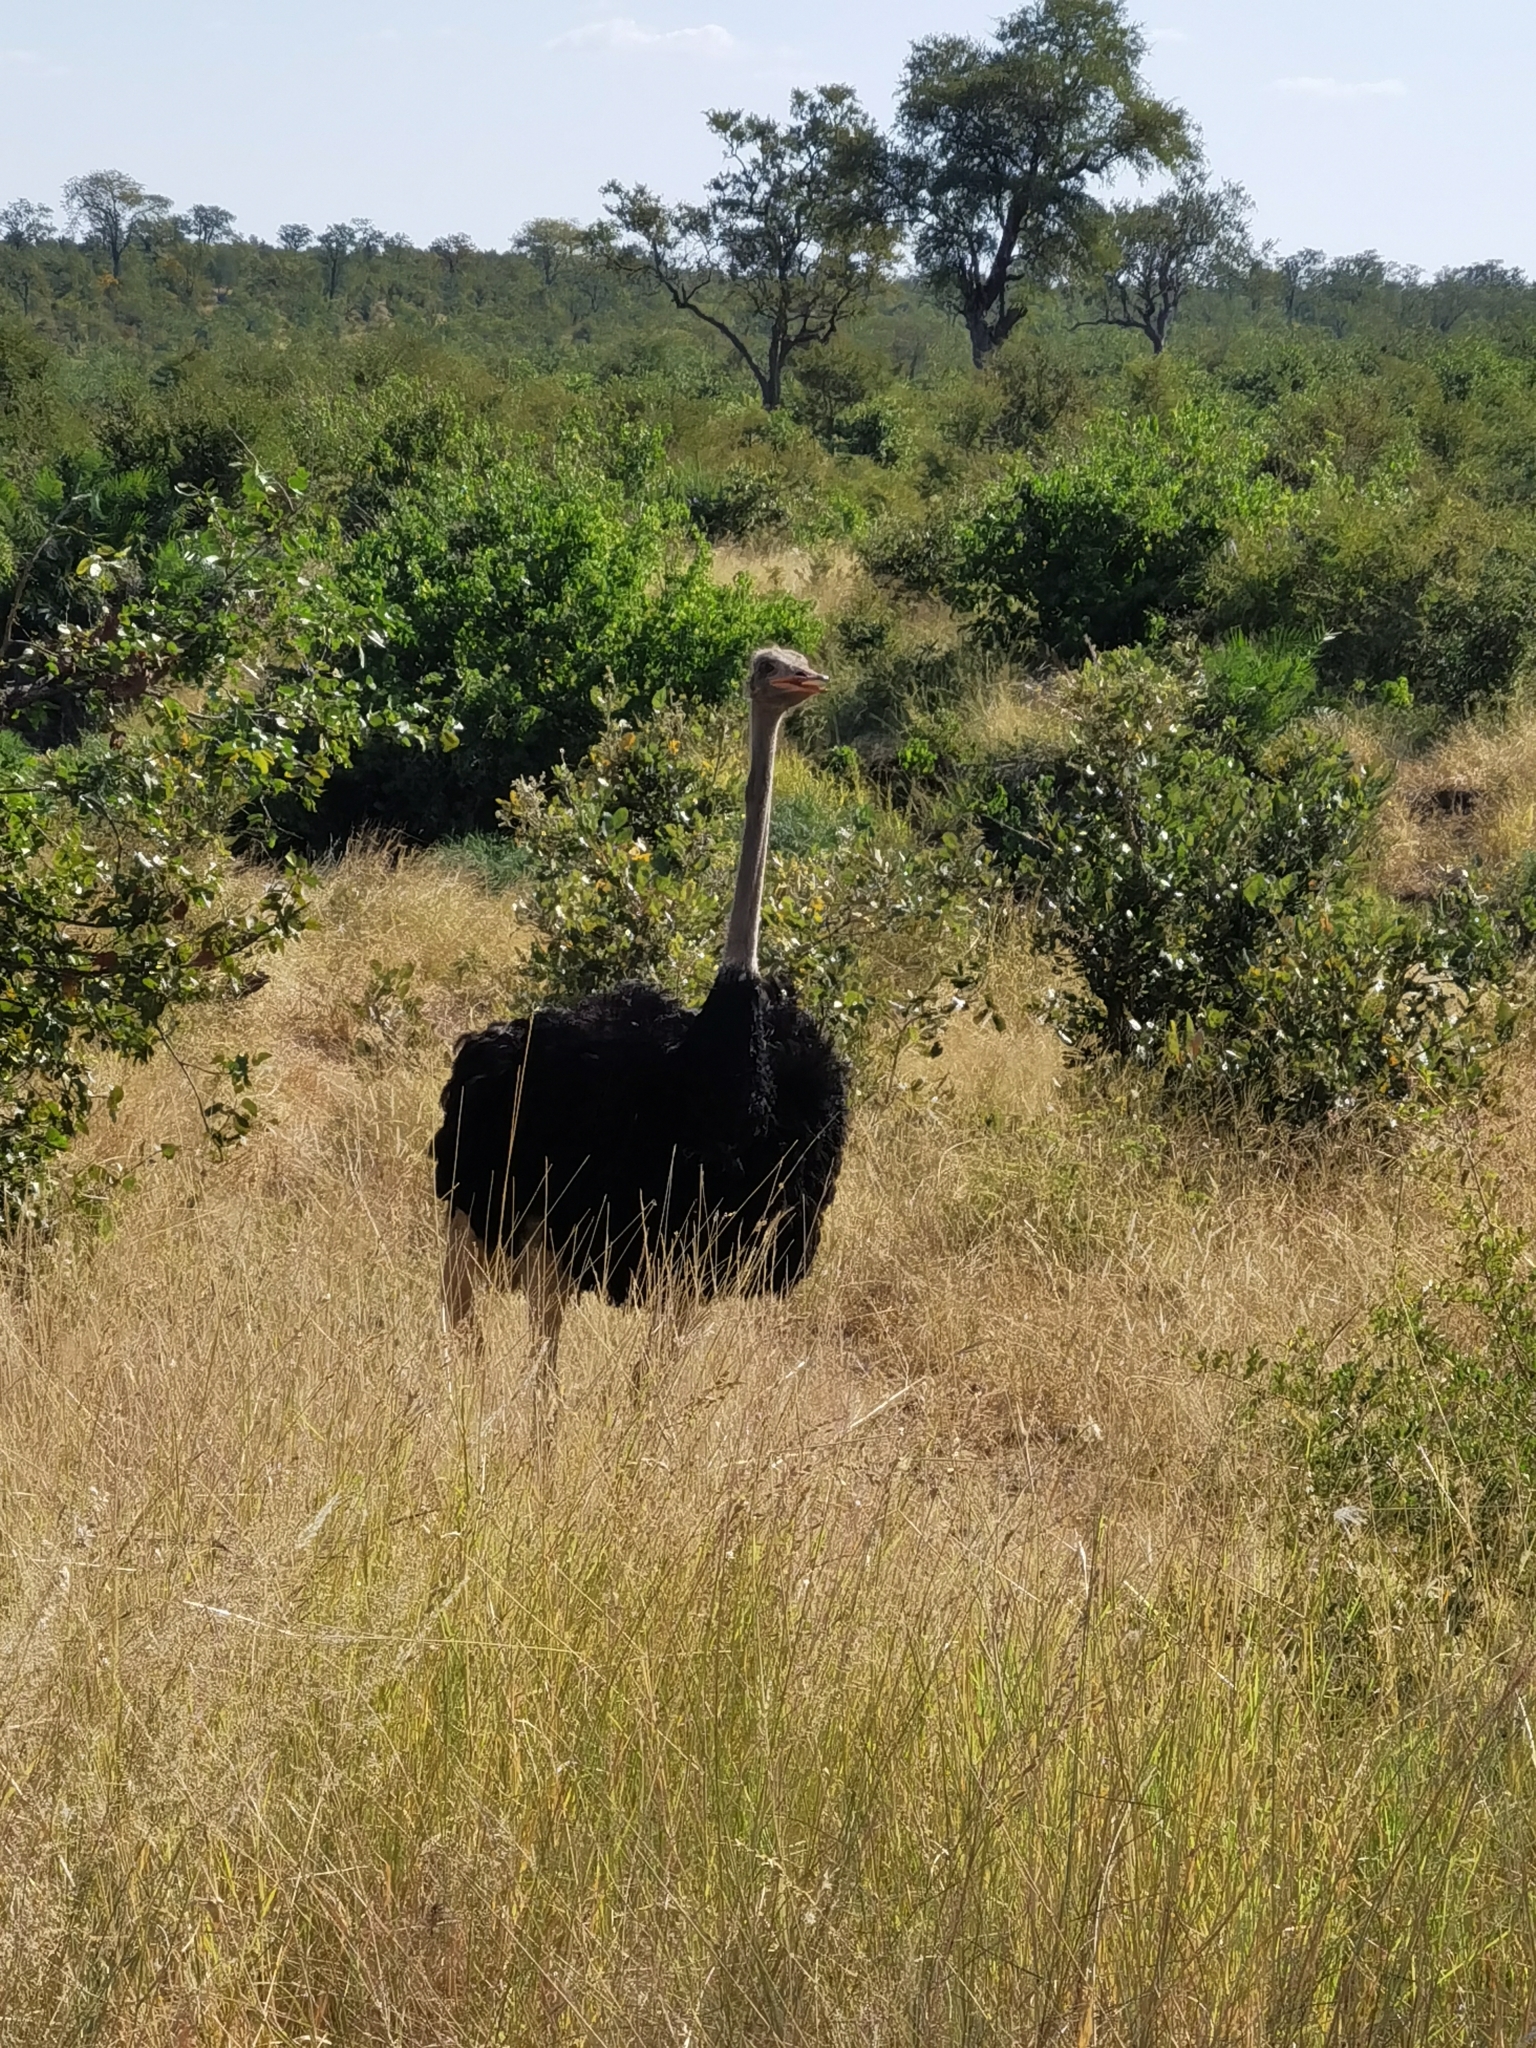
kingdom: Animalia
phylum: Chordata
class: Aves
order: Struthioniformes
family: Struthionidae
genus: Struthio
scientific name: Struthio camelus
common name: Common ostrich
